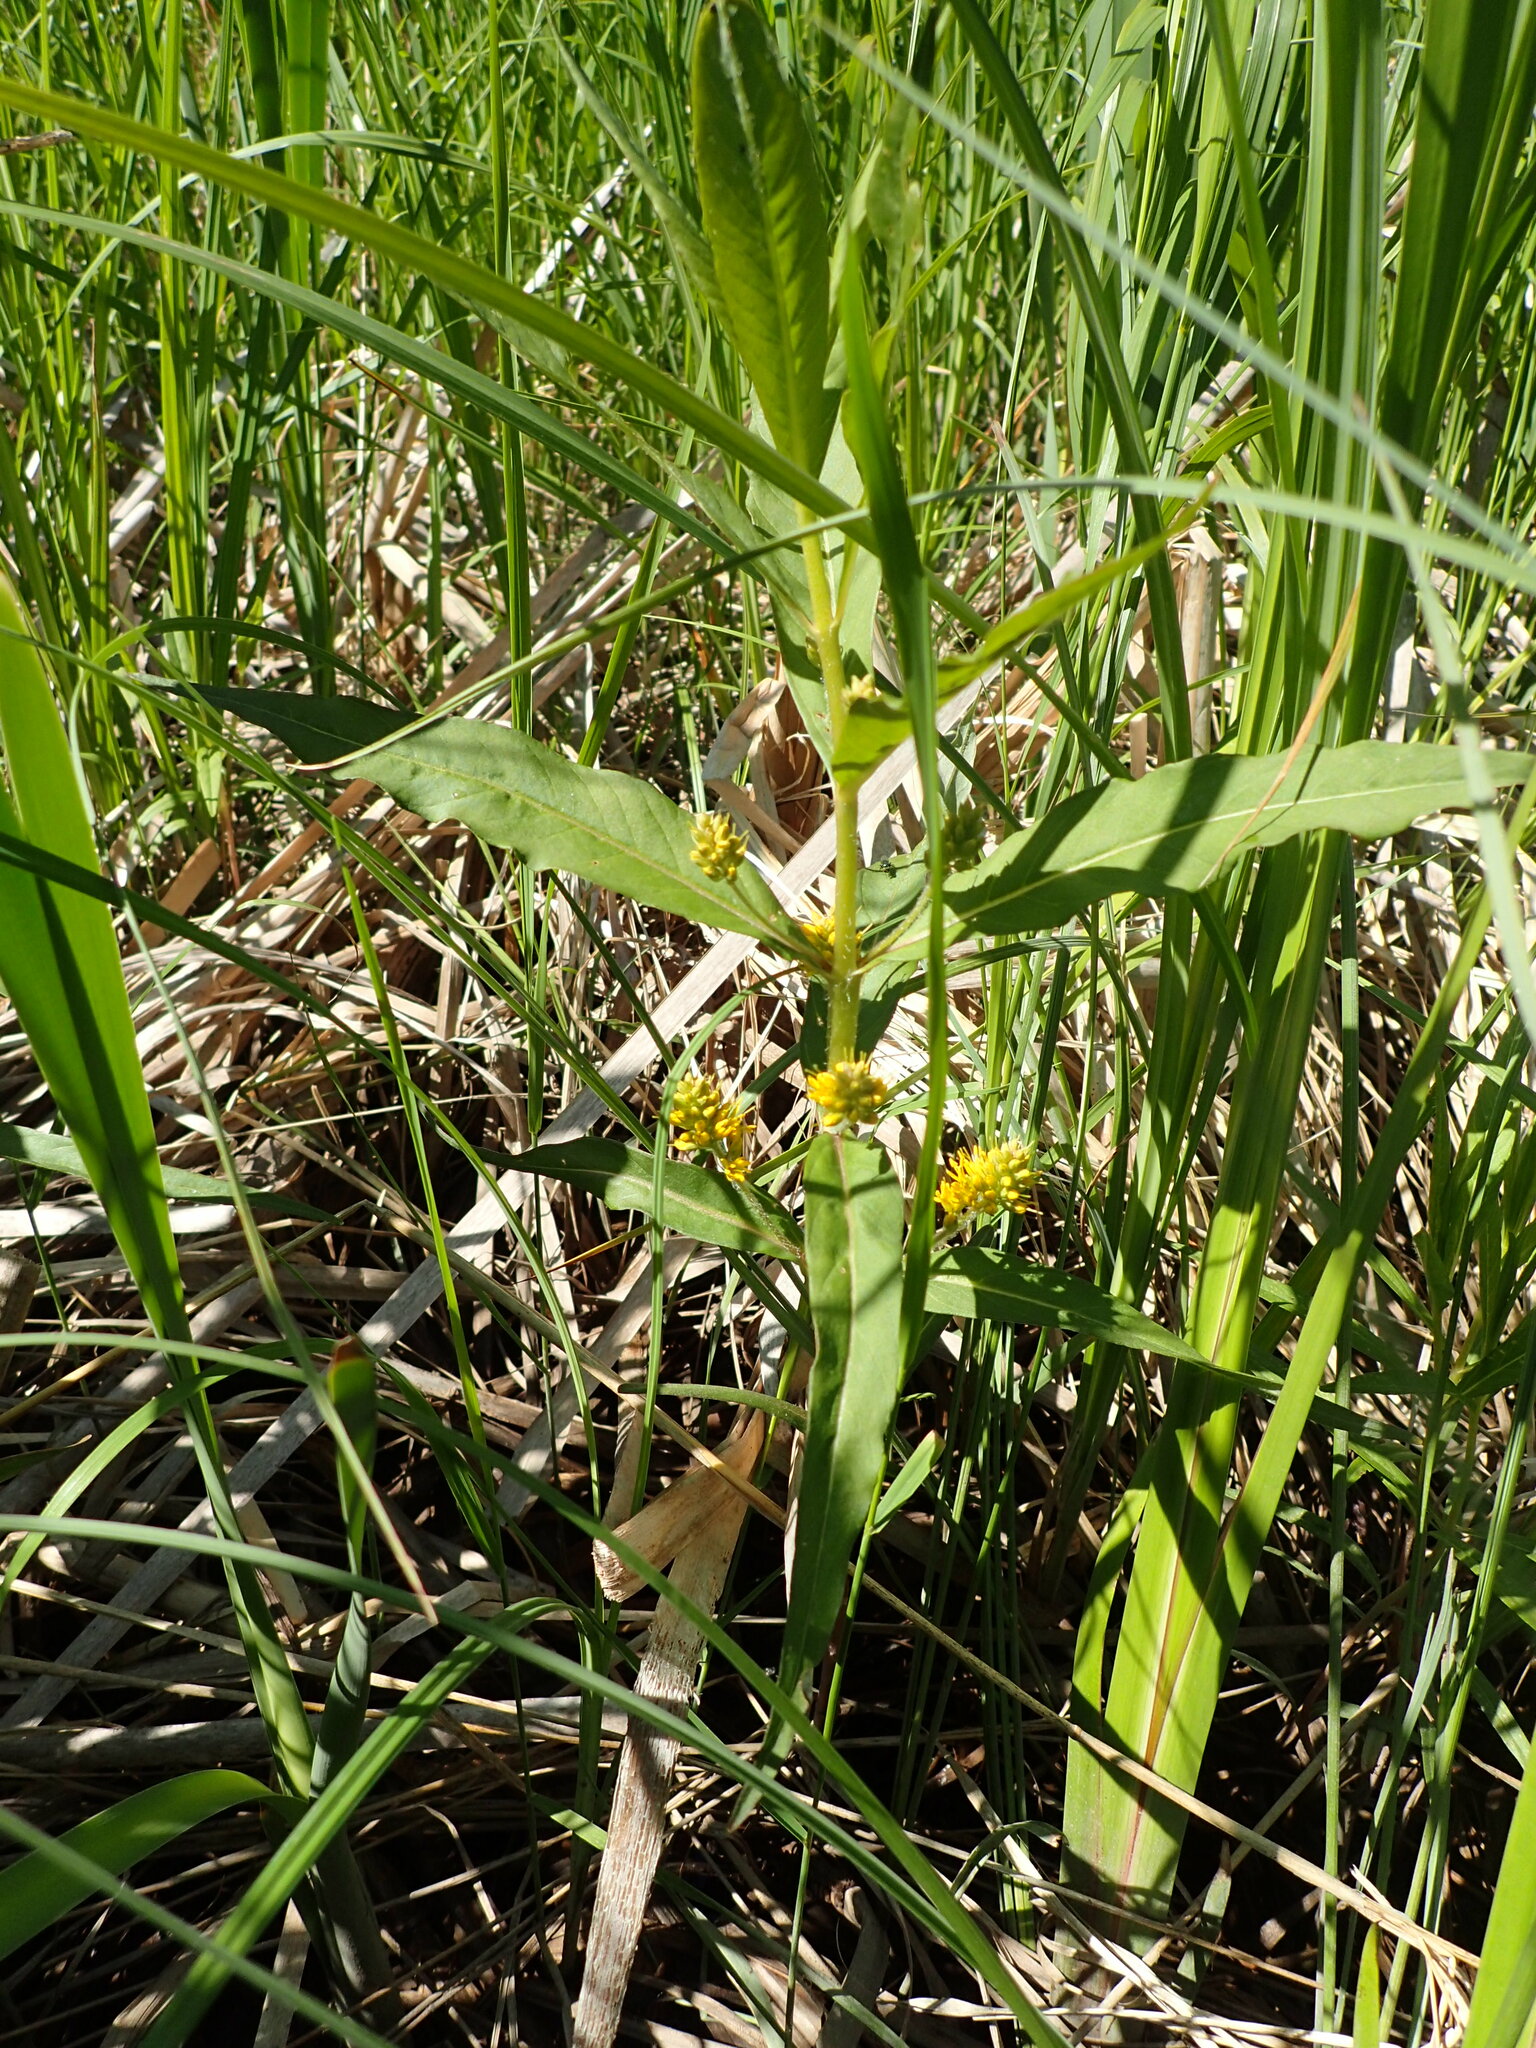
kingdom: Plantae
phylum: Tracheophyta
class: Magnoliopsida
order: Ericales
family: Primulaceae
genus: Lysimachia
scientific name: Lysimachia thyrsiflora
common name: Tufted loosestrife
